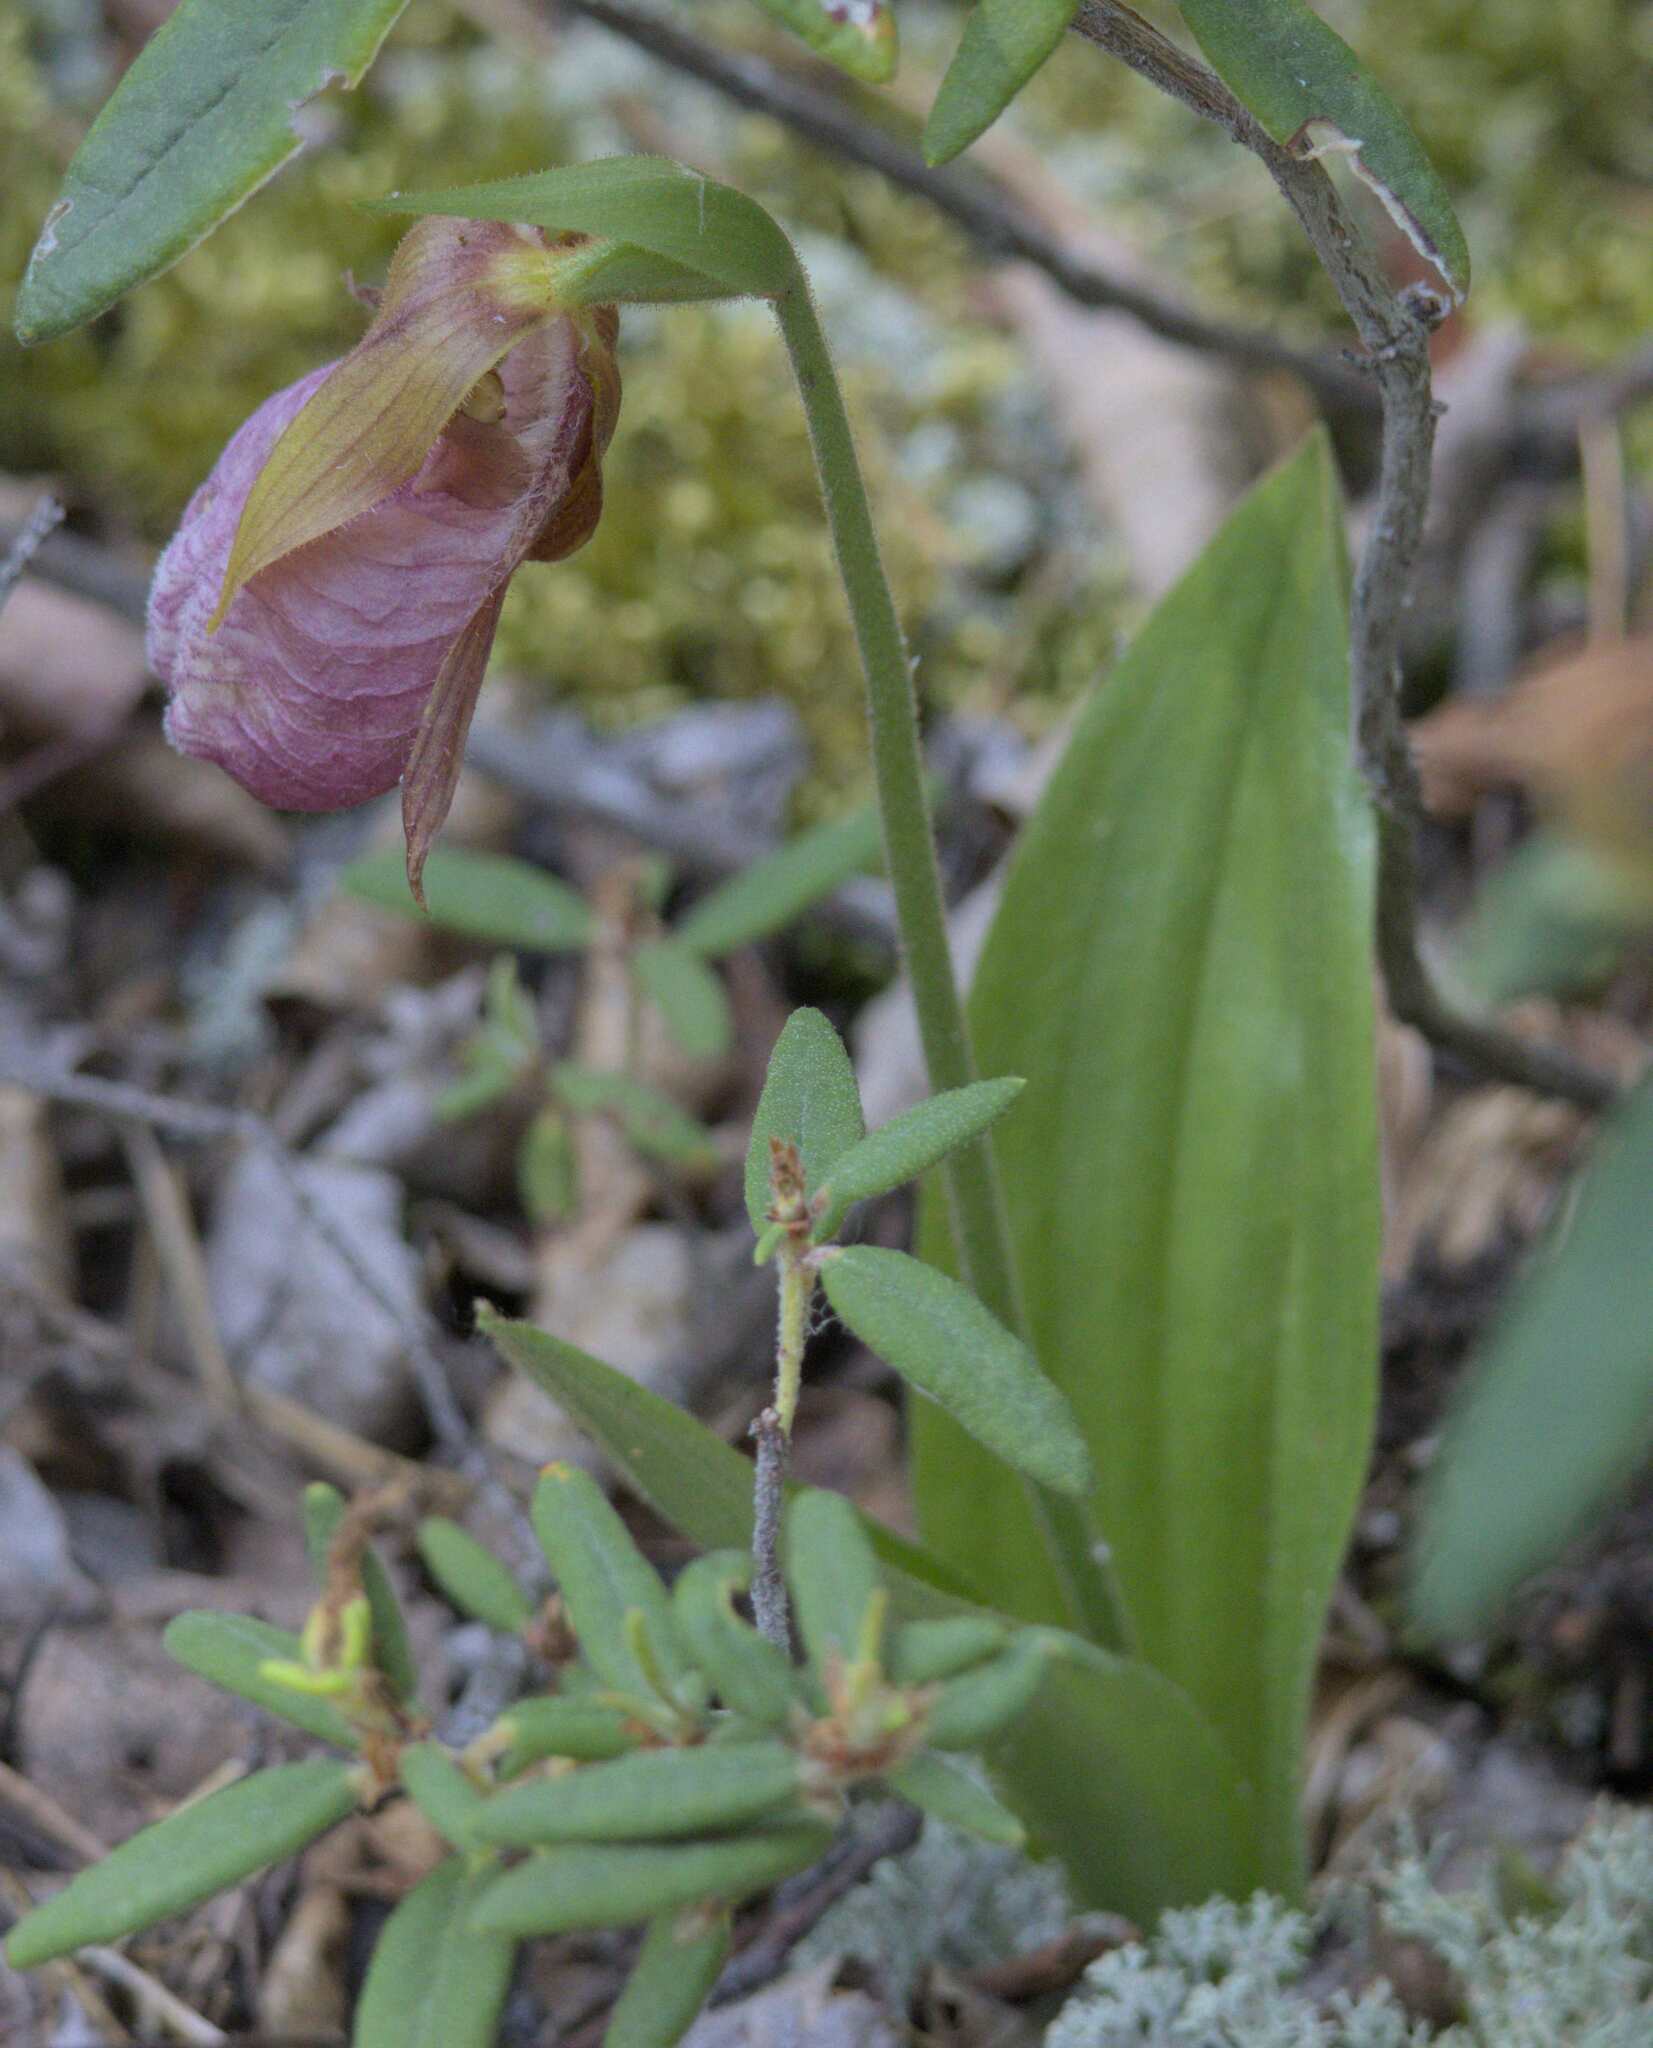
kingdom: Plantae
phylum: Tracheophyta
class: Liliopsida
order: Asparagales
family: Orchidaceae
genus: Cypripedium
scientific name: Cypripedium acaule
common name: Pink lady's-slipper
